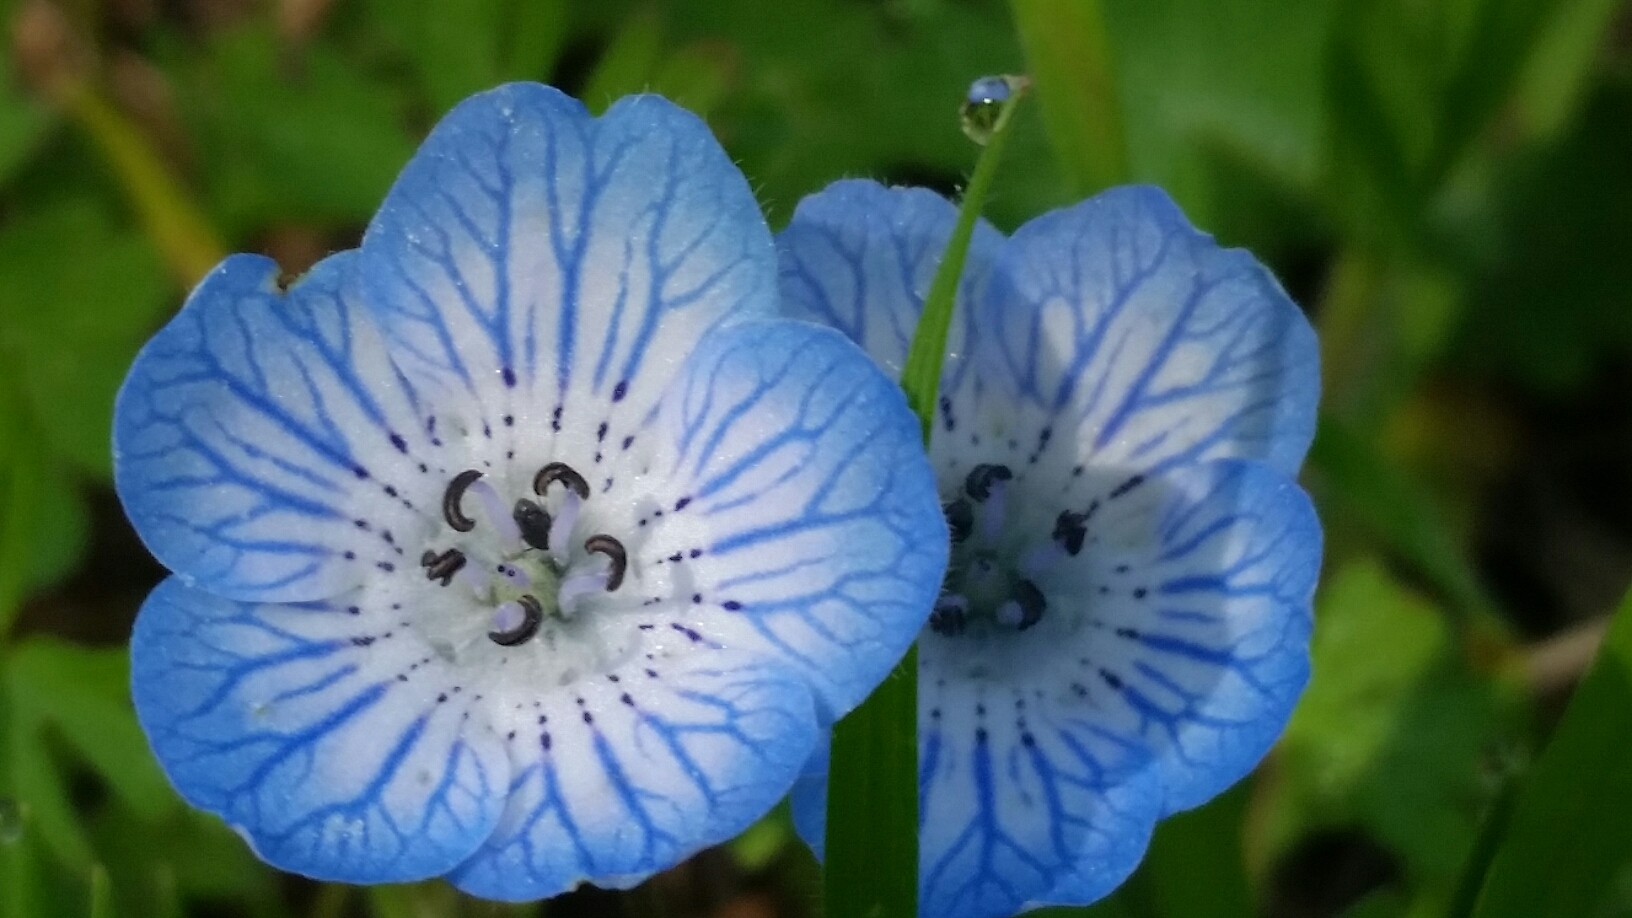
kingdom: Plantae
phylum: Tracheophyta
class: Magnoliopsida
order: Boraginales
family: Hydrophyllaceae
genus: Nemophila
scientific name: Nemophila menziesii
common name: Baby's-blue-eyes
